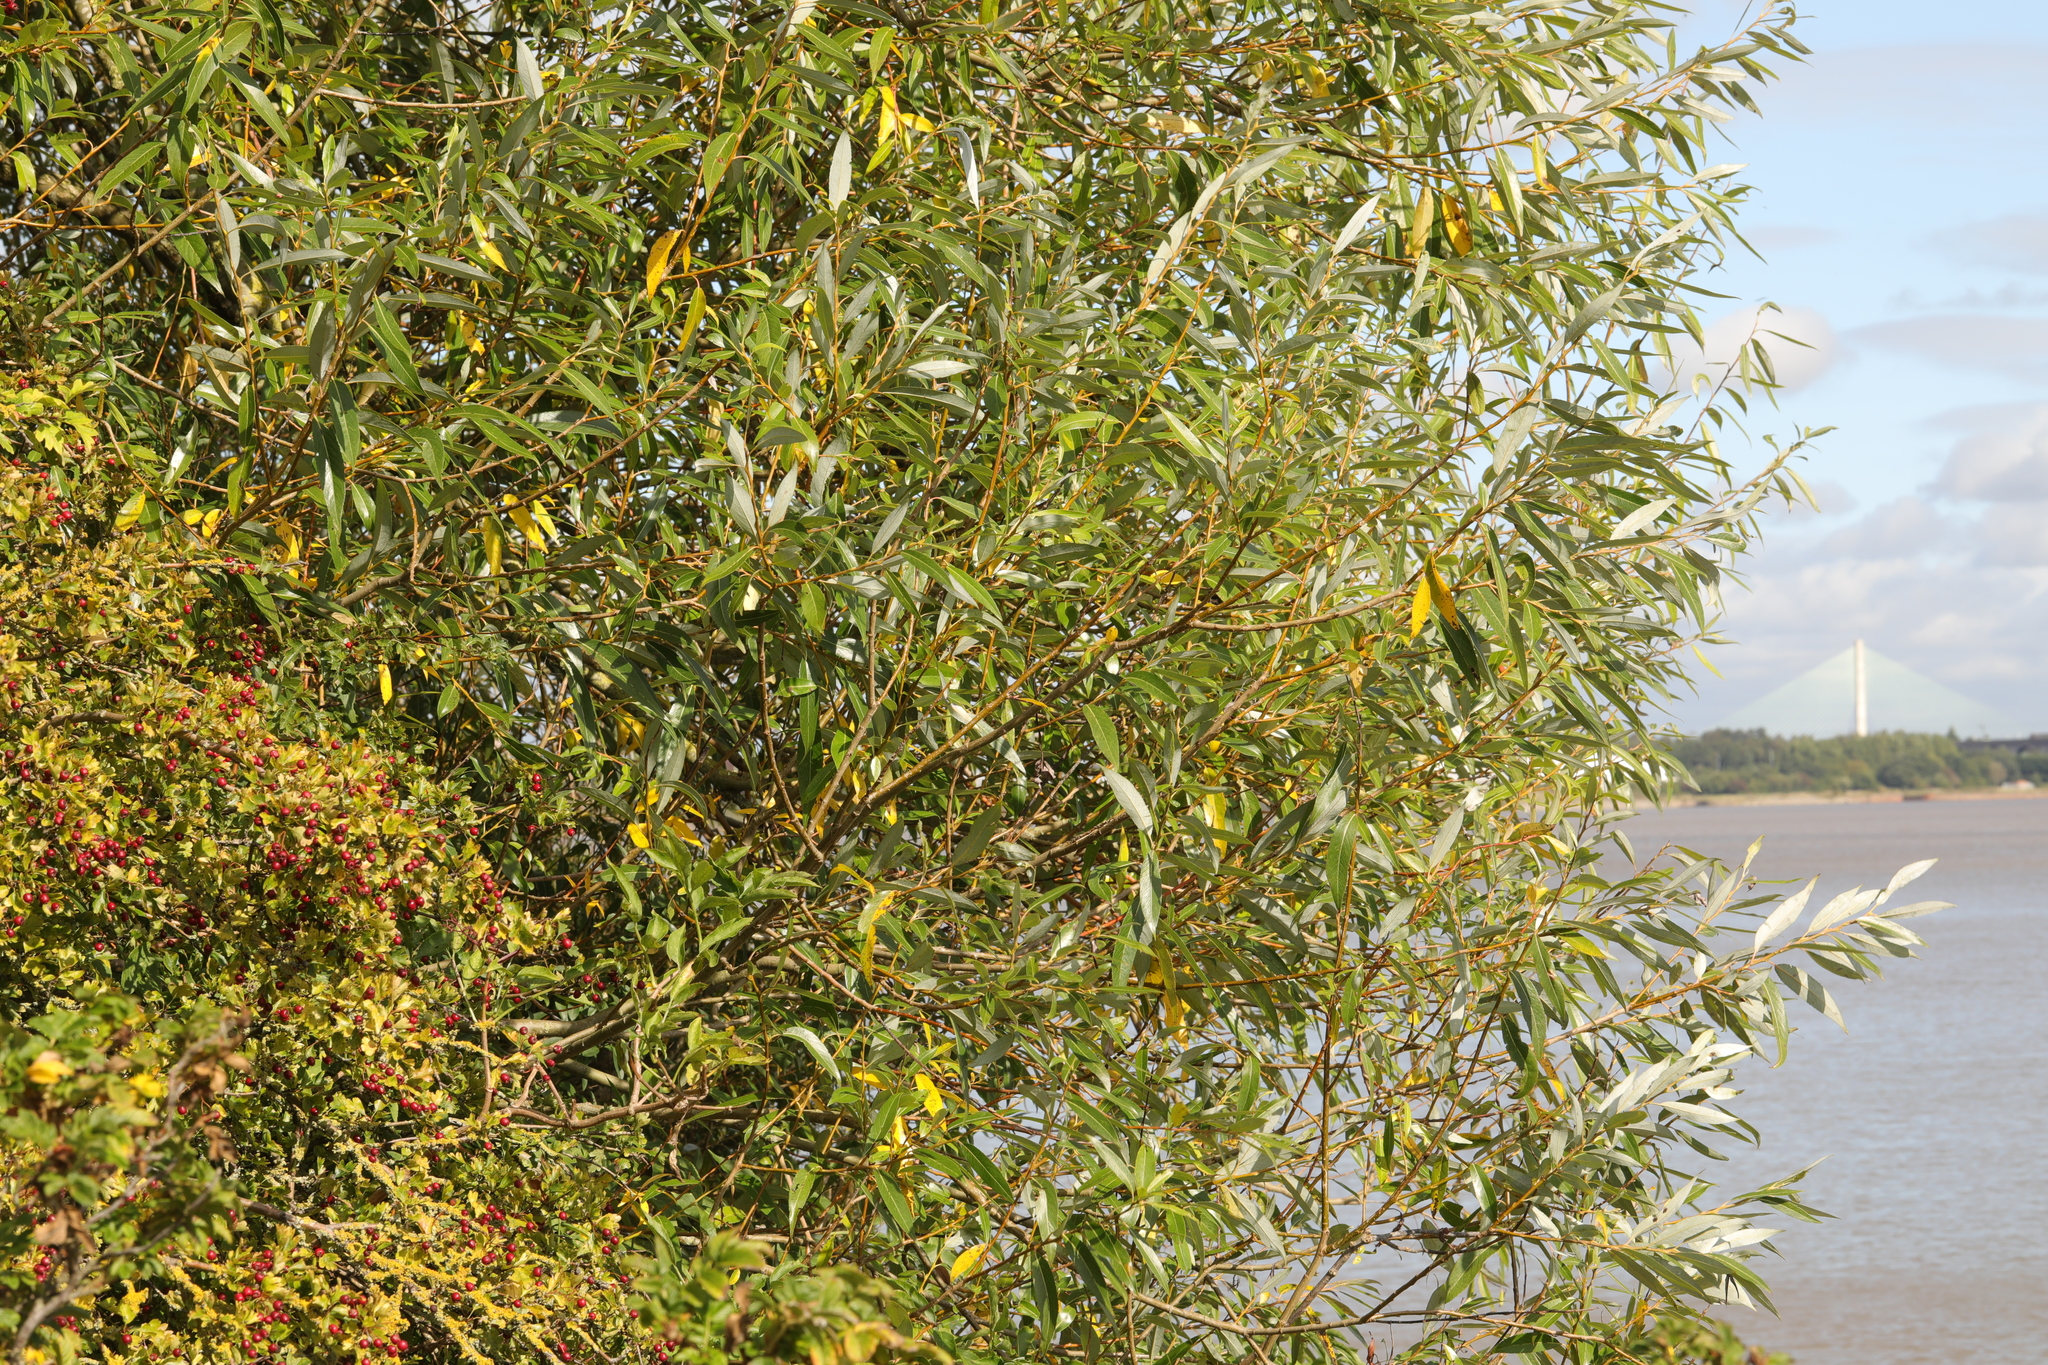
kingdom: Plantae
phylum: Tracheophyta
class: Magnoliopsida
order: Malpighiales
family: Salicaceae
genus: Salix
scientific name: Salix fragilis
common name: Crack willow
